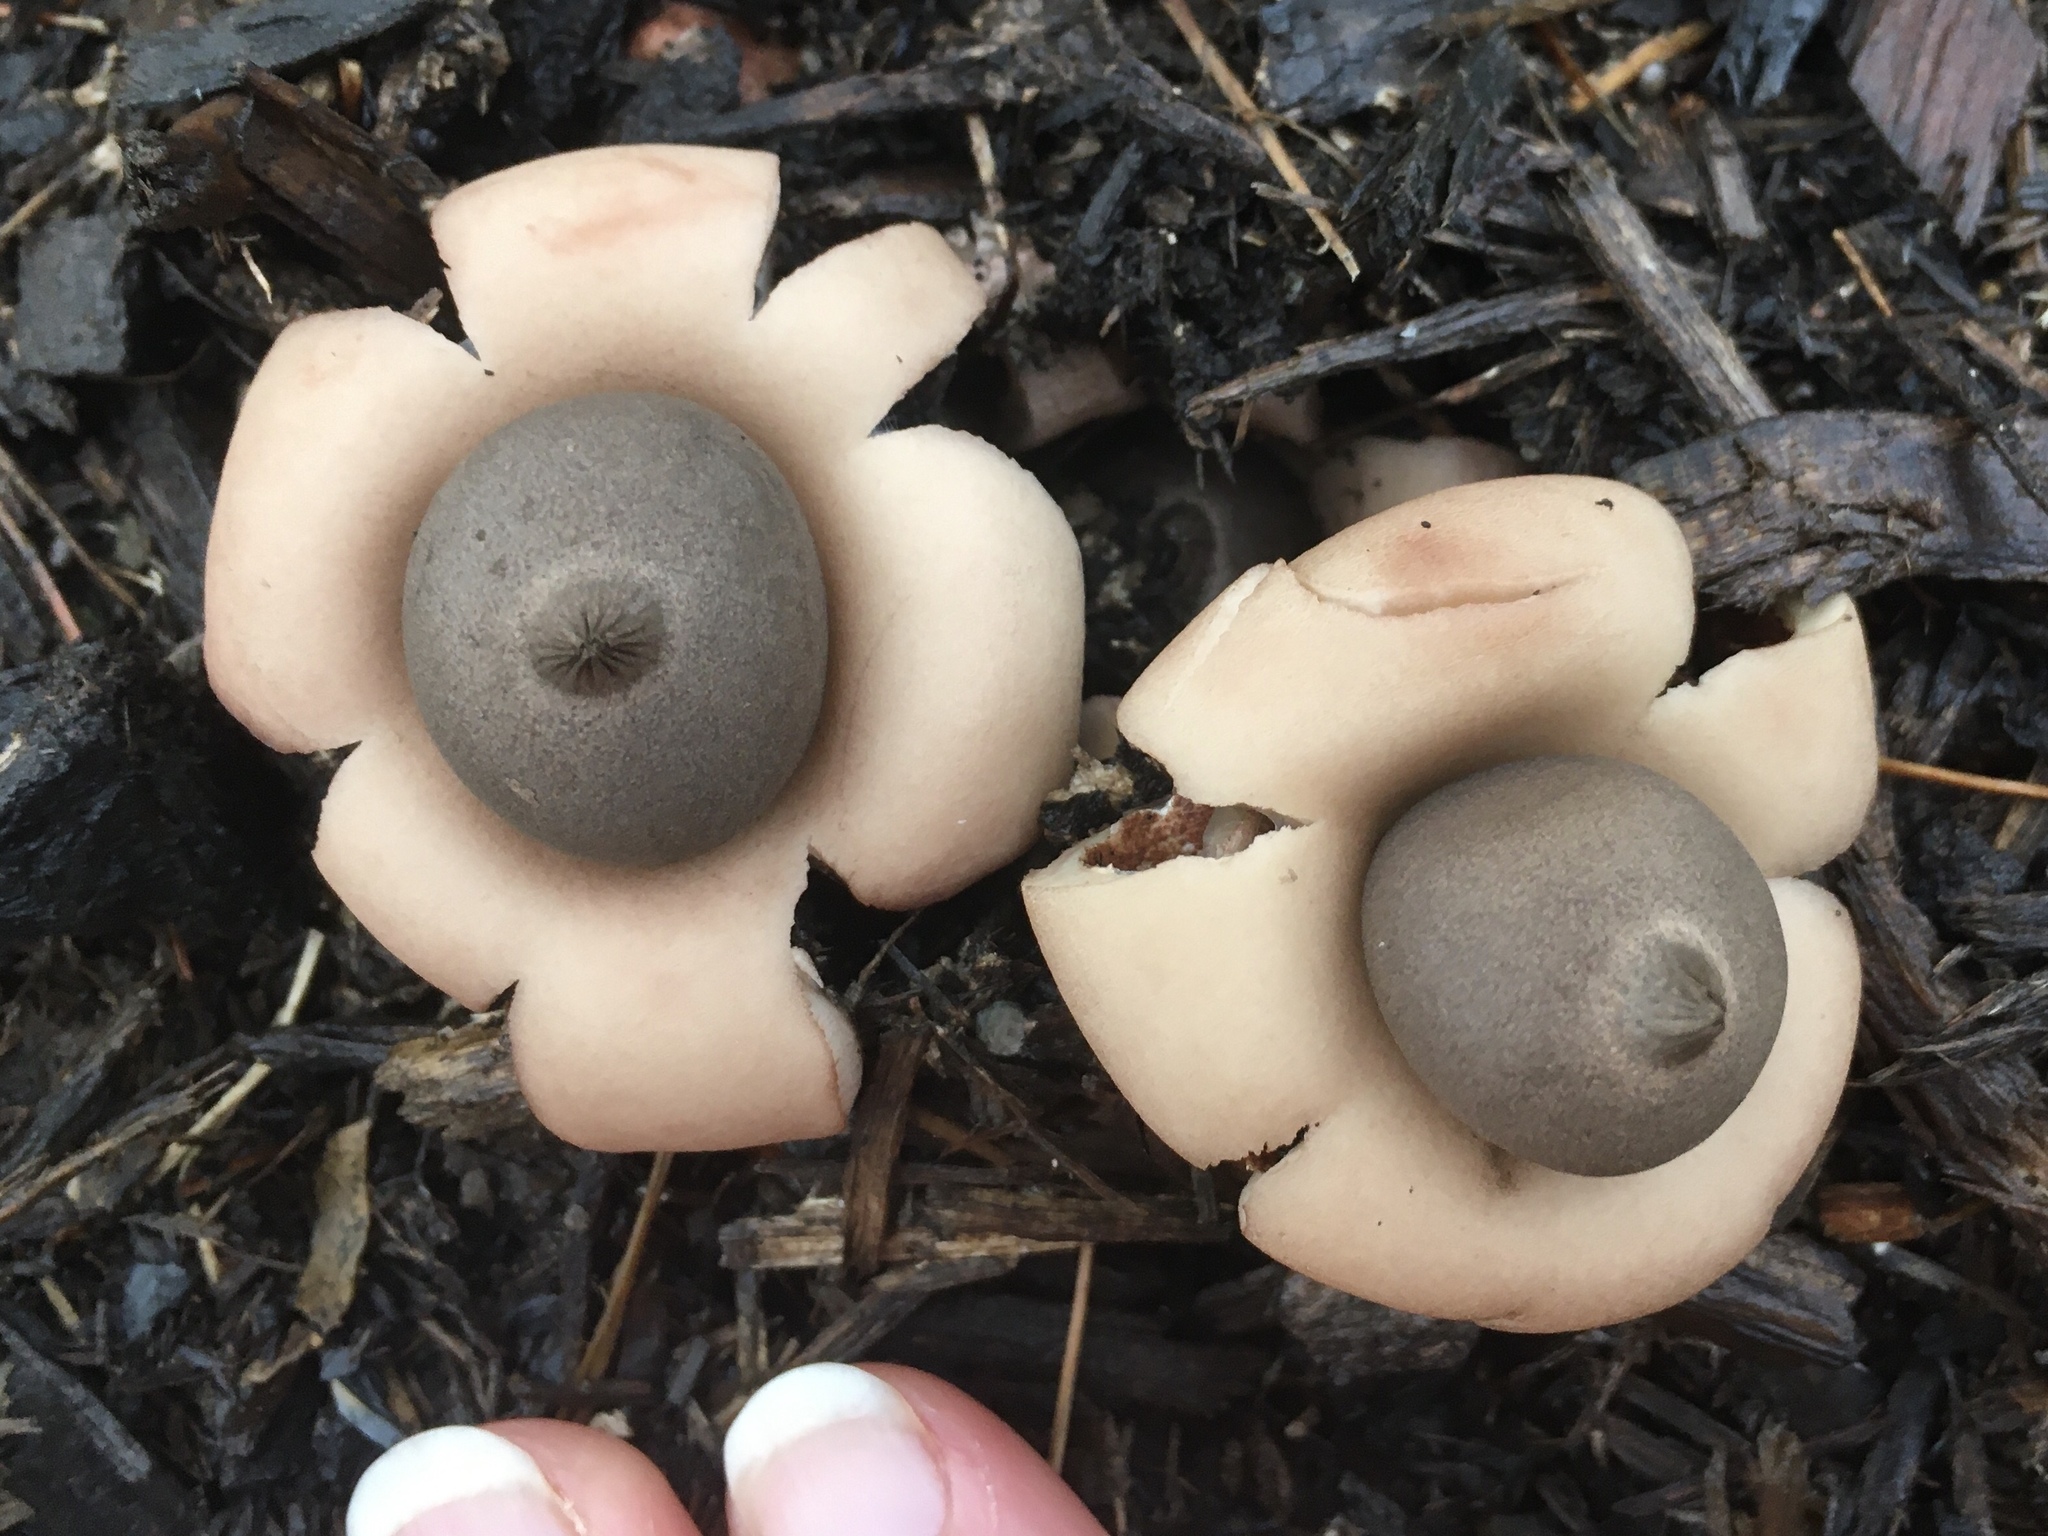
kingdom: Fungi
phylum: Basidiomycota
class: Agaricomycetes
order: Geastrales
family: Geastraceae
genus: Geastrum
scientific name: Geastrum saccatum
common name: Rounded earthstar
